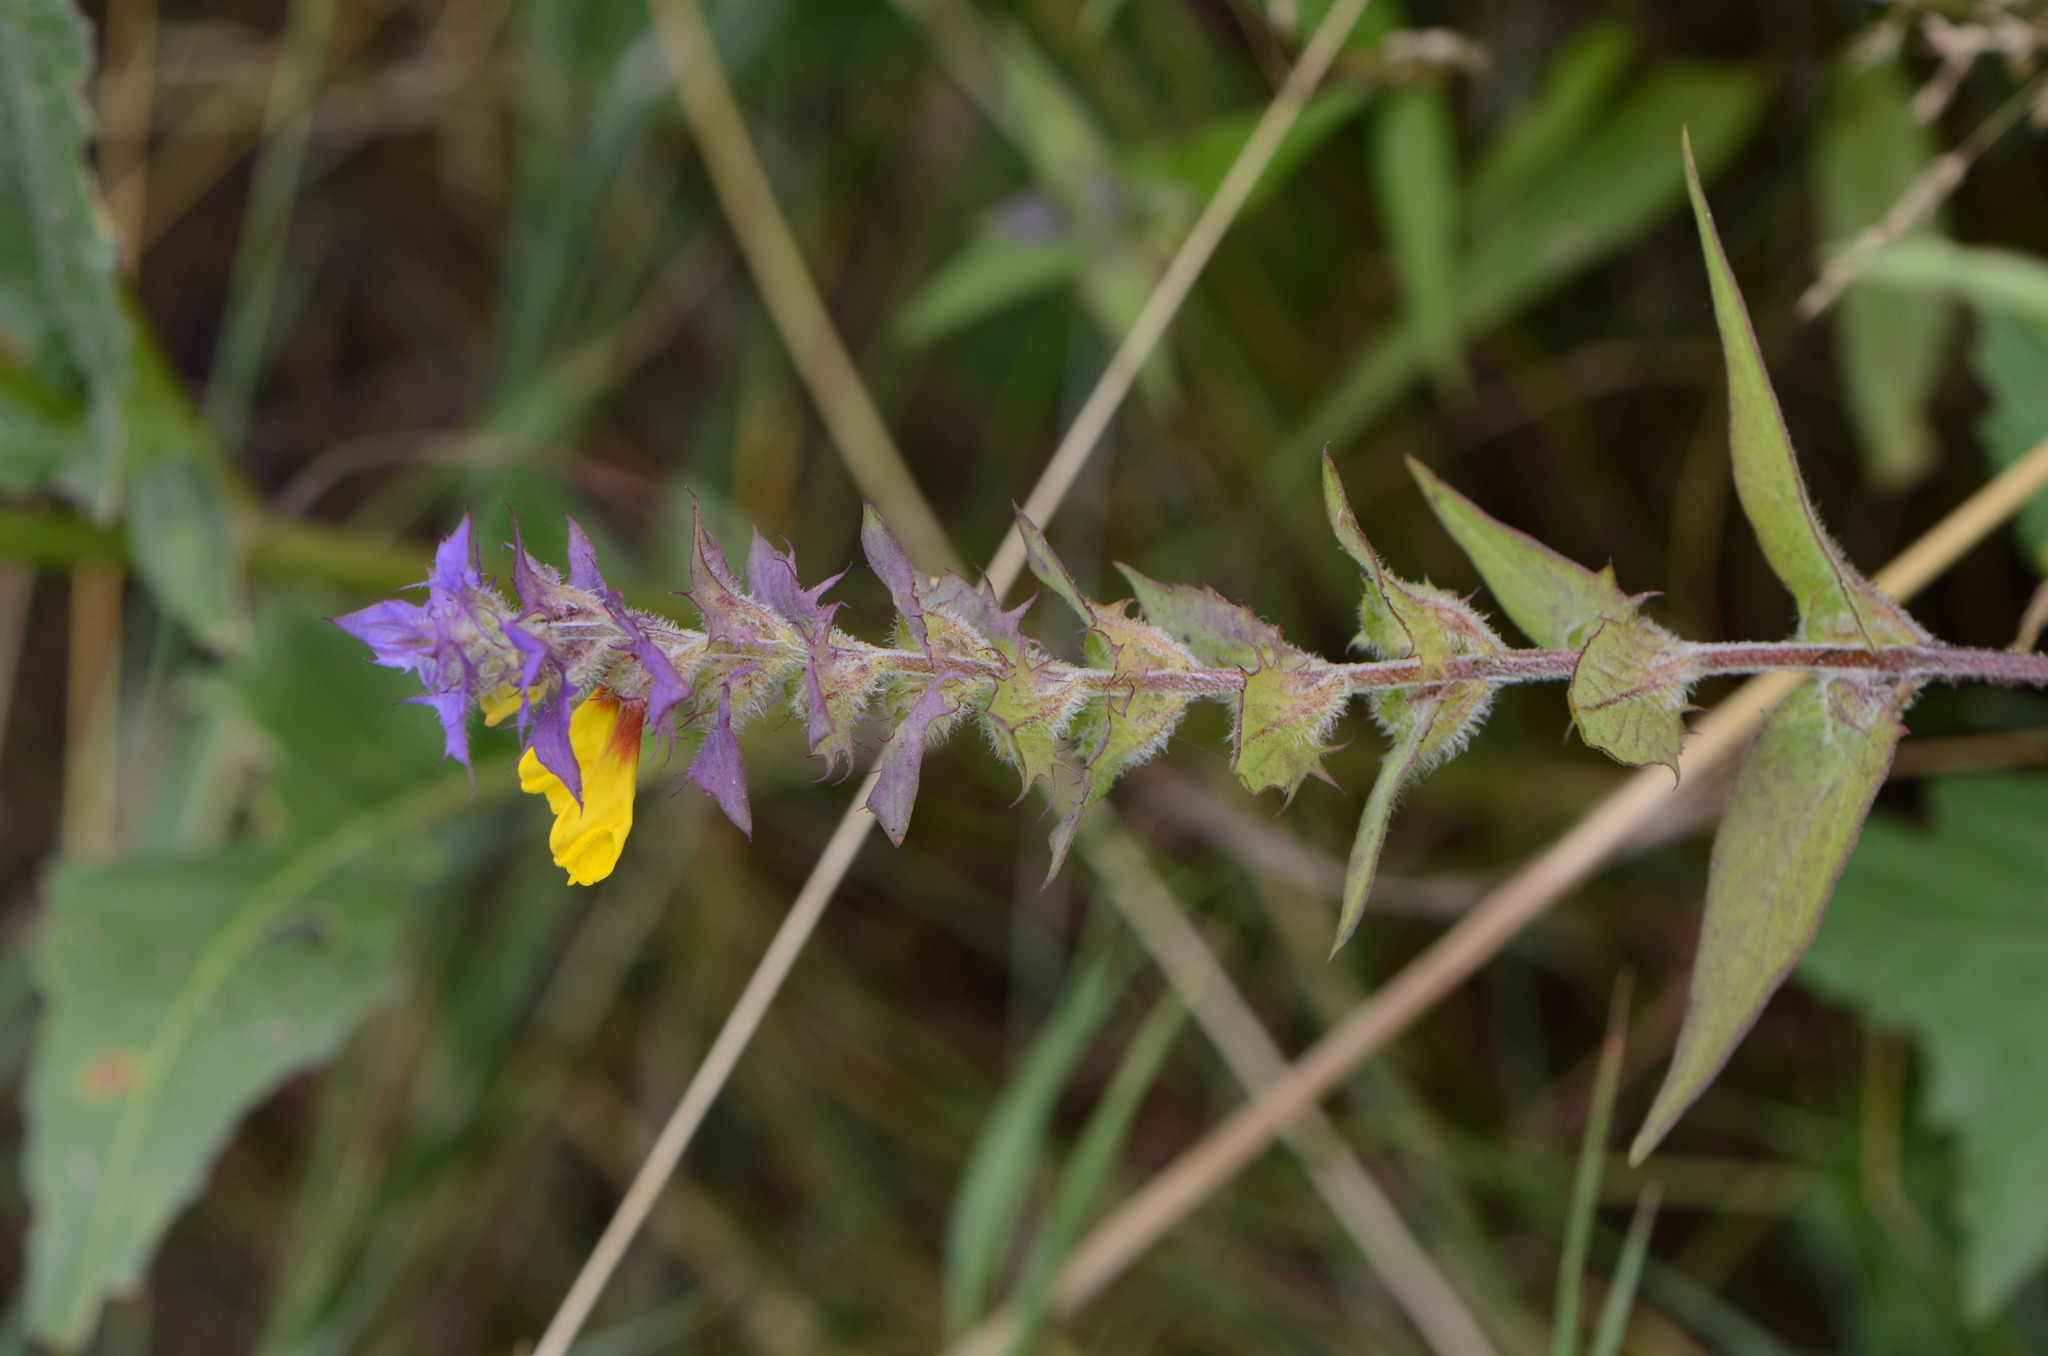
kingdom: Plantae
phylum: Tracheophyta
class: Magnoliopsida
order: Lamiales
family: Orobanchaceae
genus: Melampyrum
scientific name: Melampyrum nemorosum
